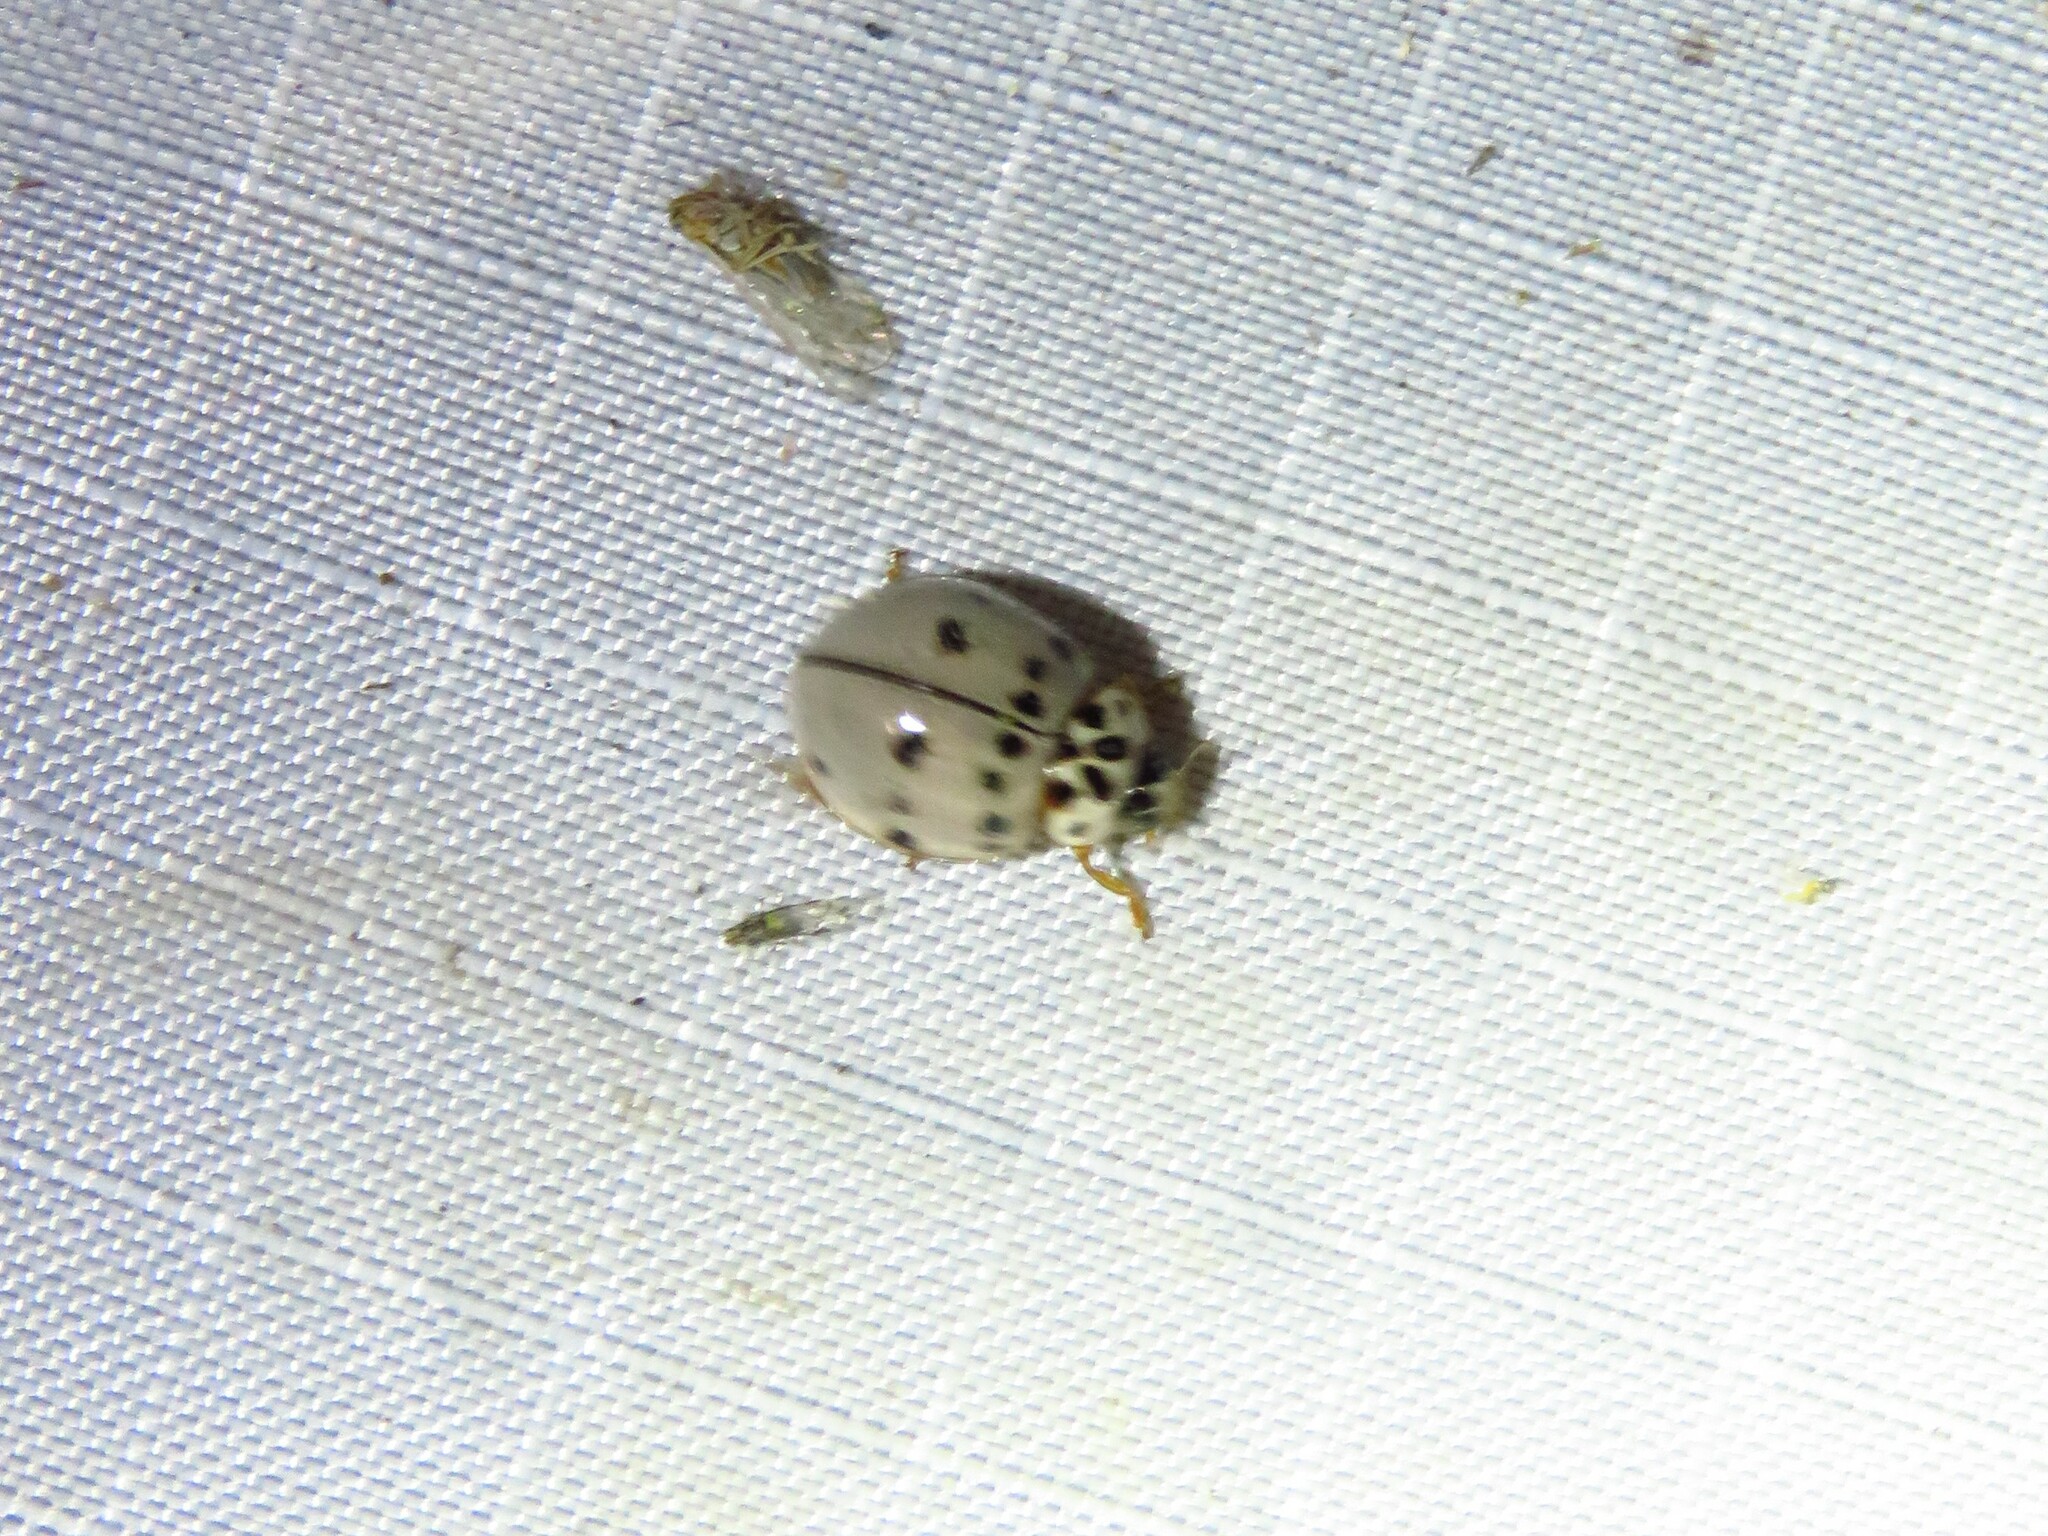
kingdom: Animalia
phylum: Arthropoda
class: Insecta
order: Coleoptera
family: Coccinellidae
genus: Olla
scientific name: Olla v-nigrum
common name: Ashy gray lady beetle
